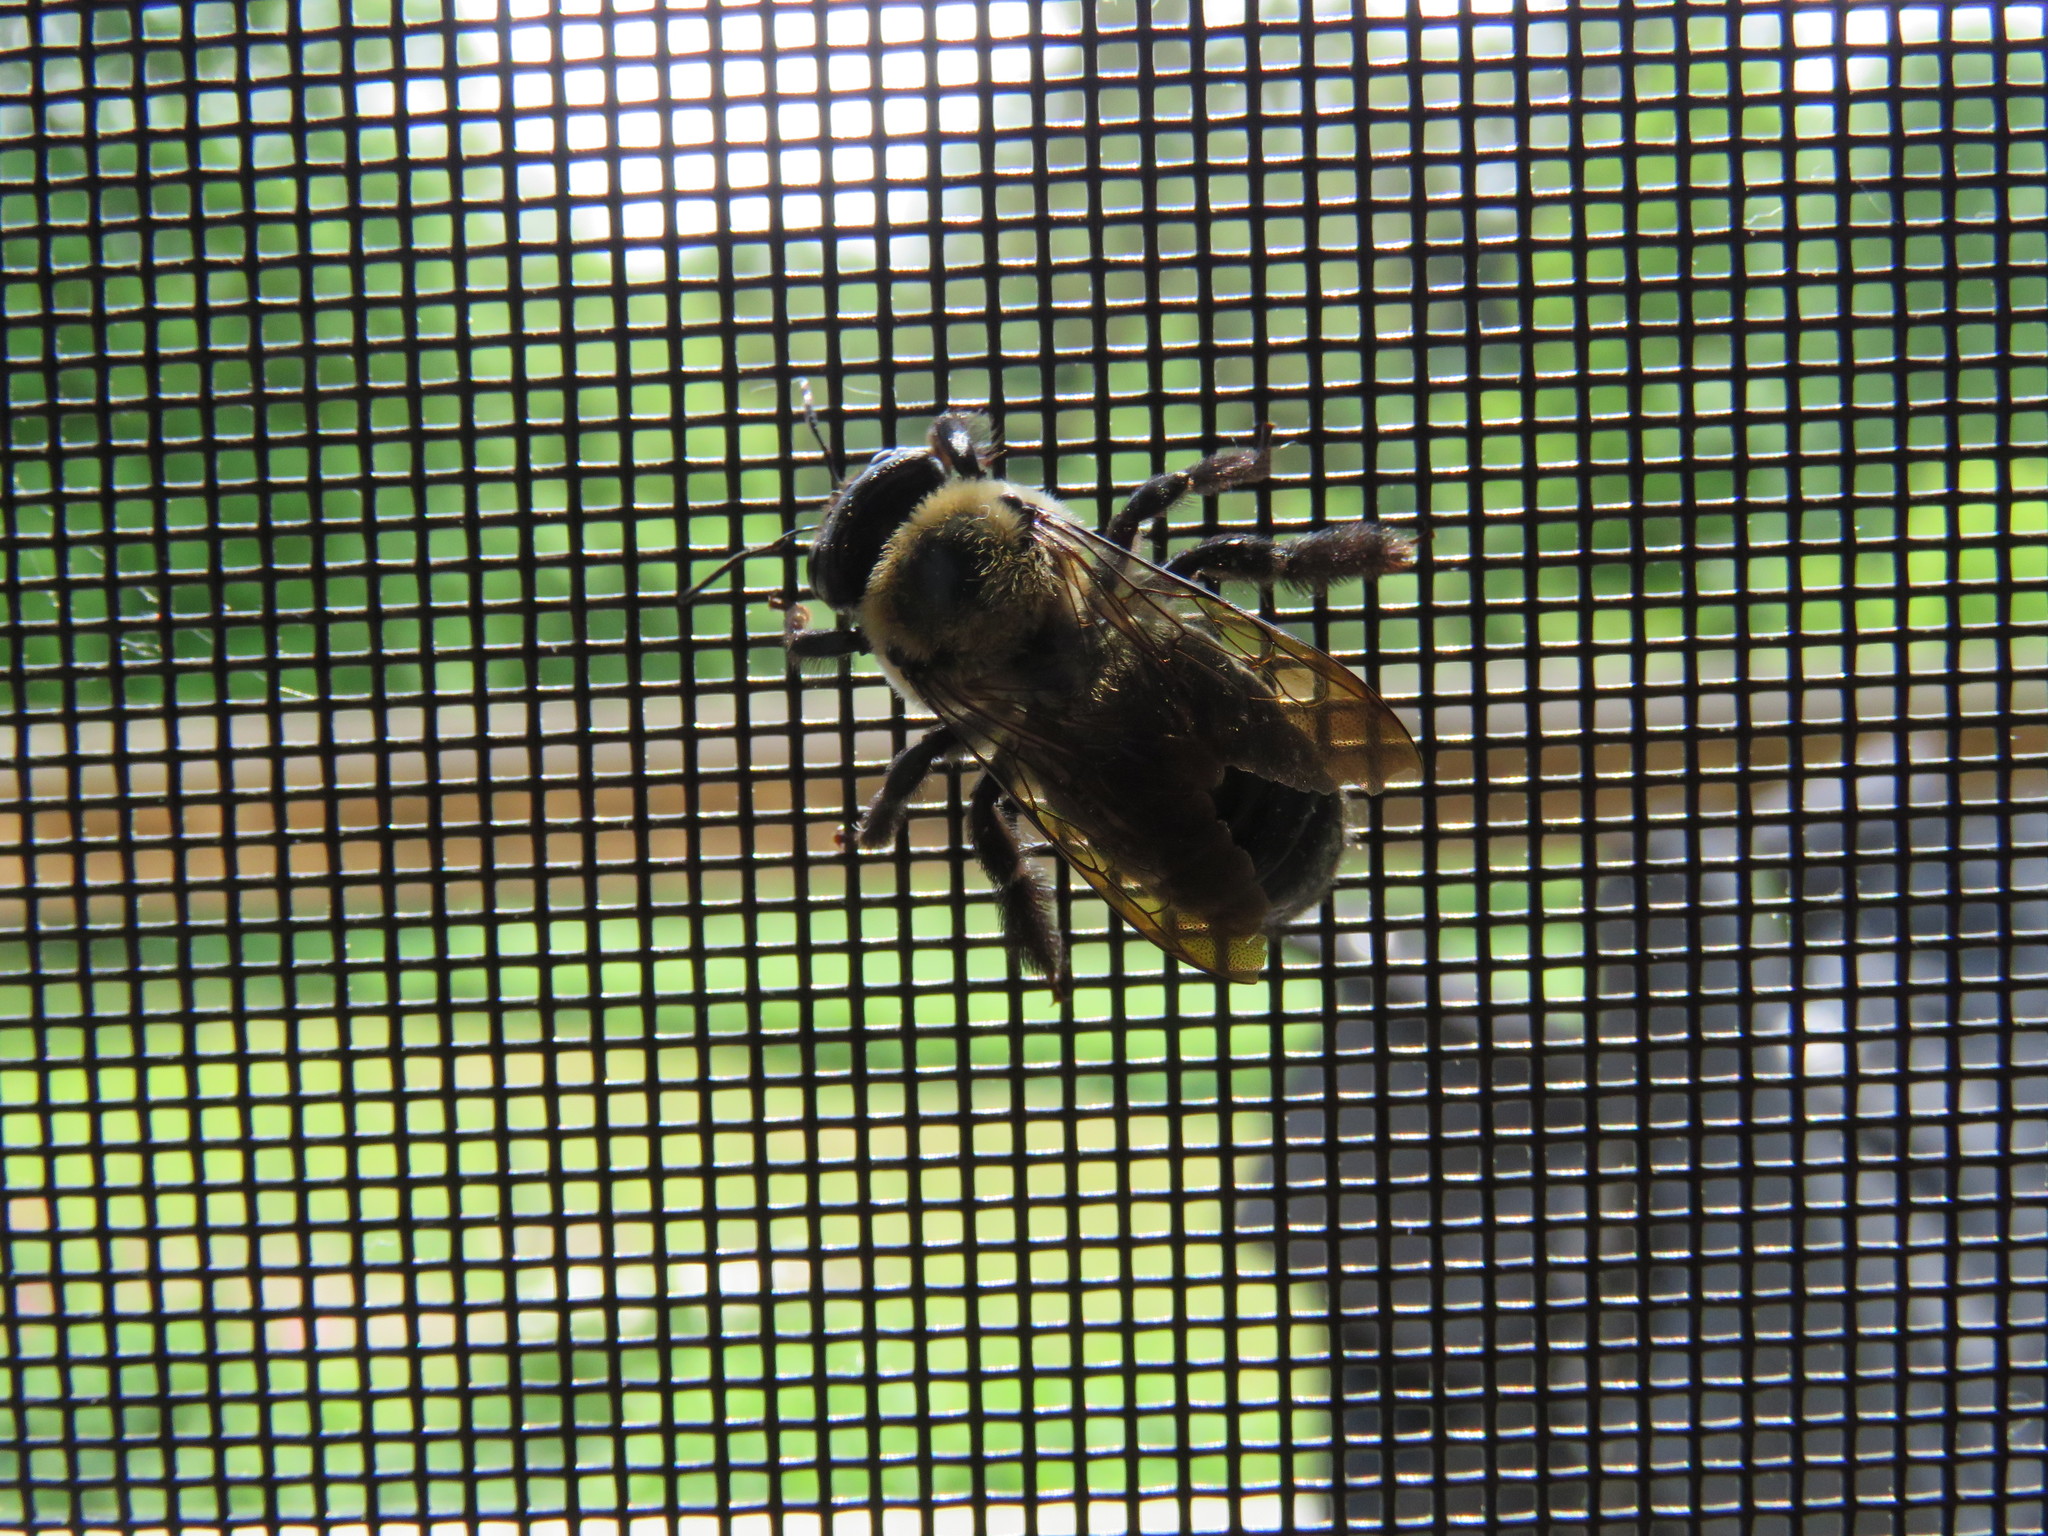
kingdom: Animalia
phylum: Arthropoda
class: Insecta
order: Hymenoptera
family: Apidae
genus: Xylocopa
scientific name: Xylocopa virginica
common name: Carpenter bee
